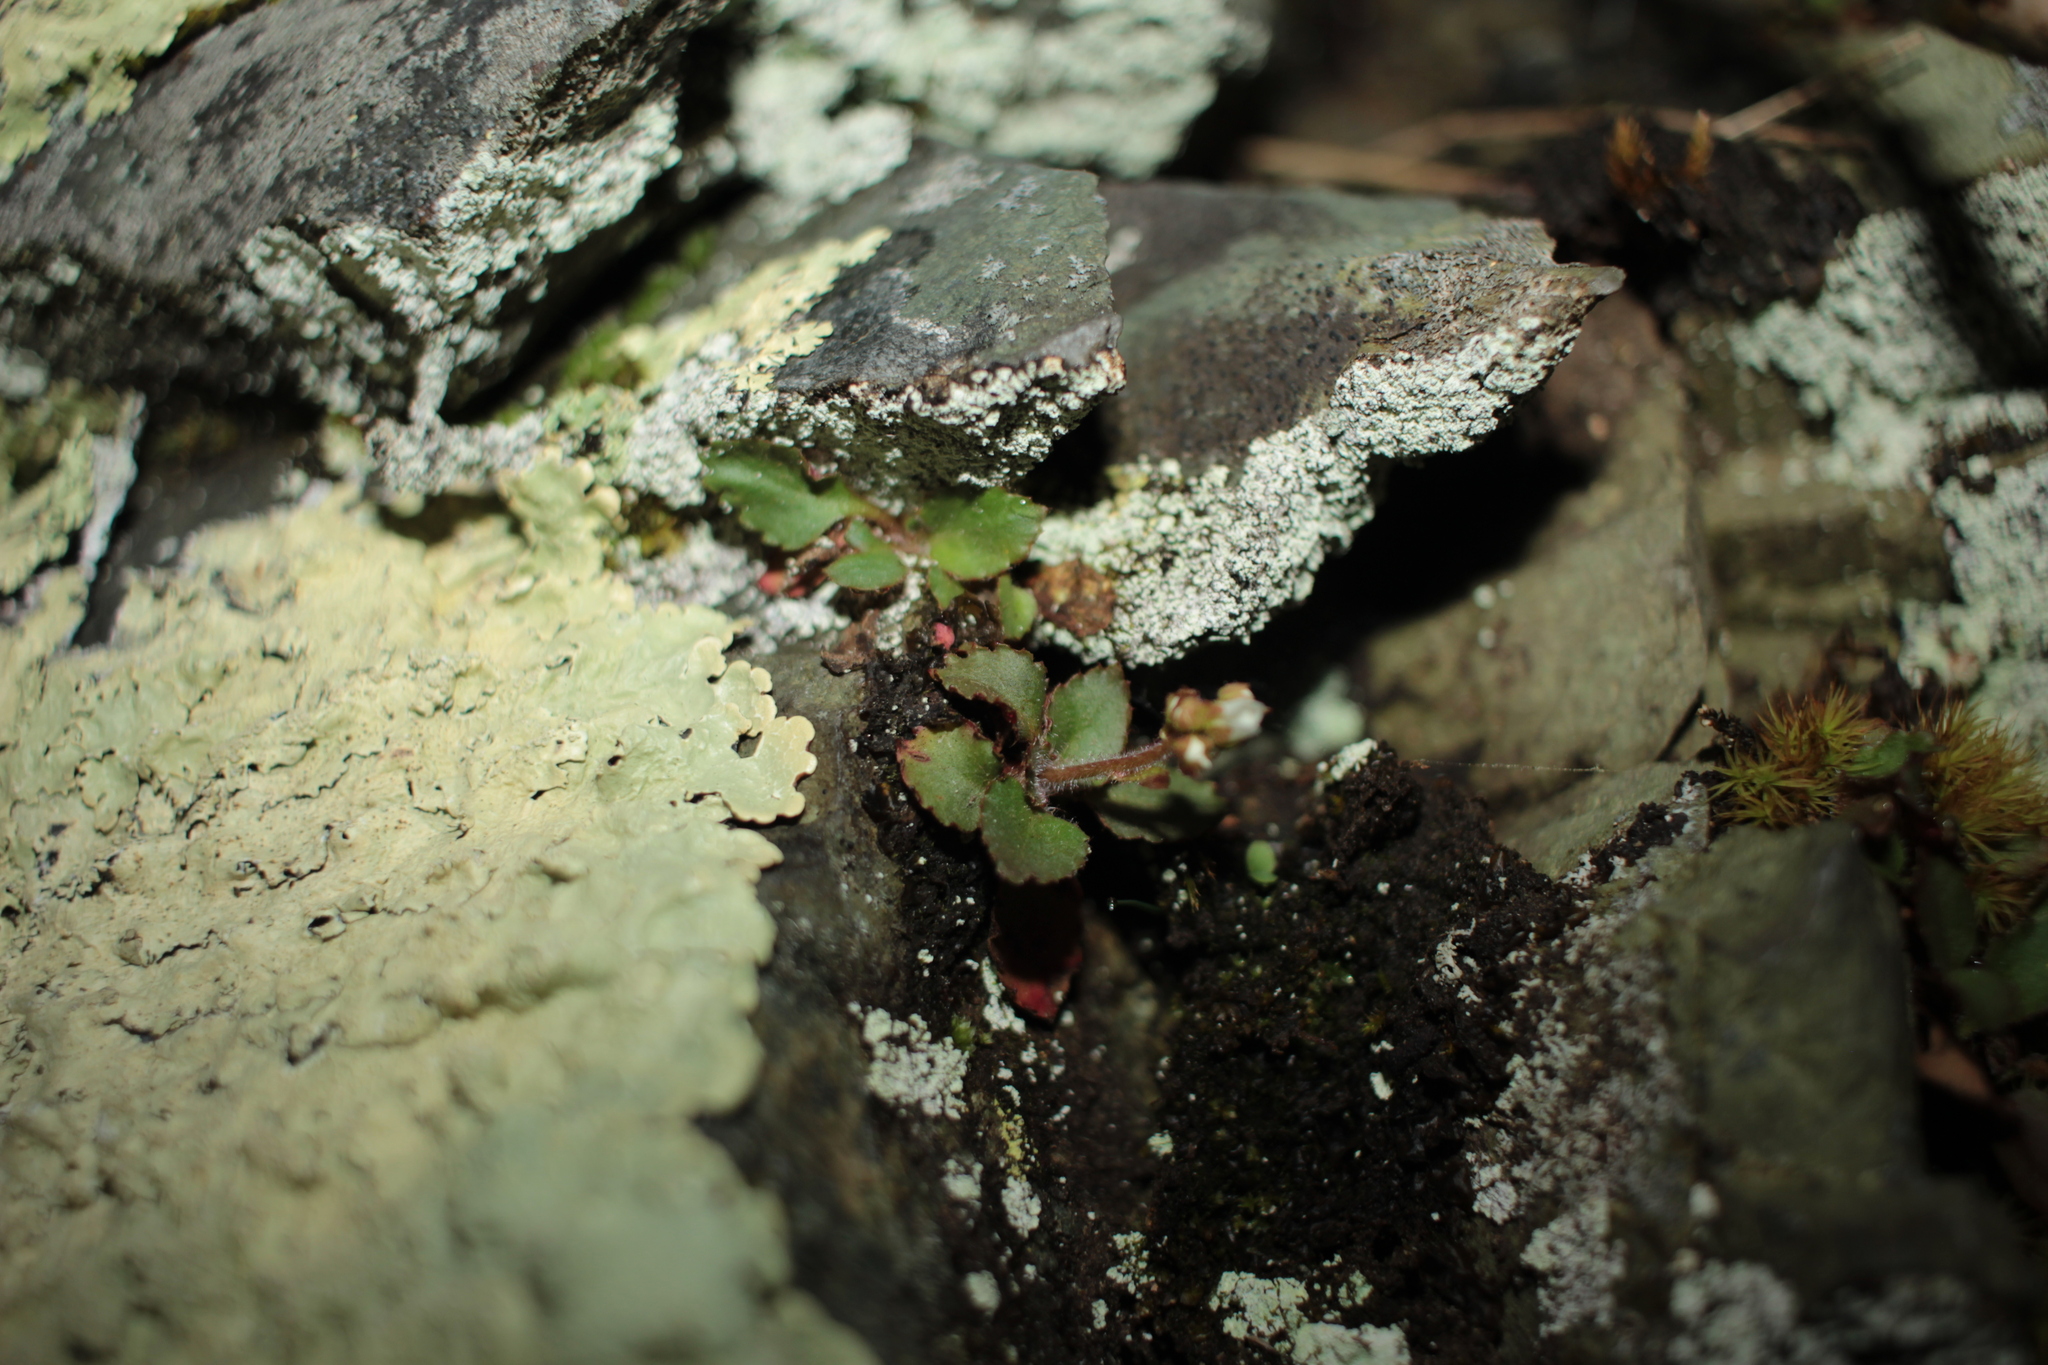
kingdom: Plantae
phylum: Tracheophyta
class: Magnoliopsida
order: Saxifragales
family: Saxifragaceae
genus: Micranthes
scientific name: Micranthes virginiensis
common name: Early saxifrage
